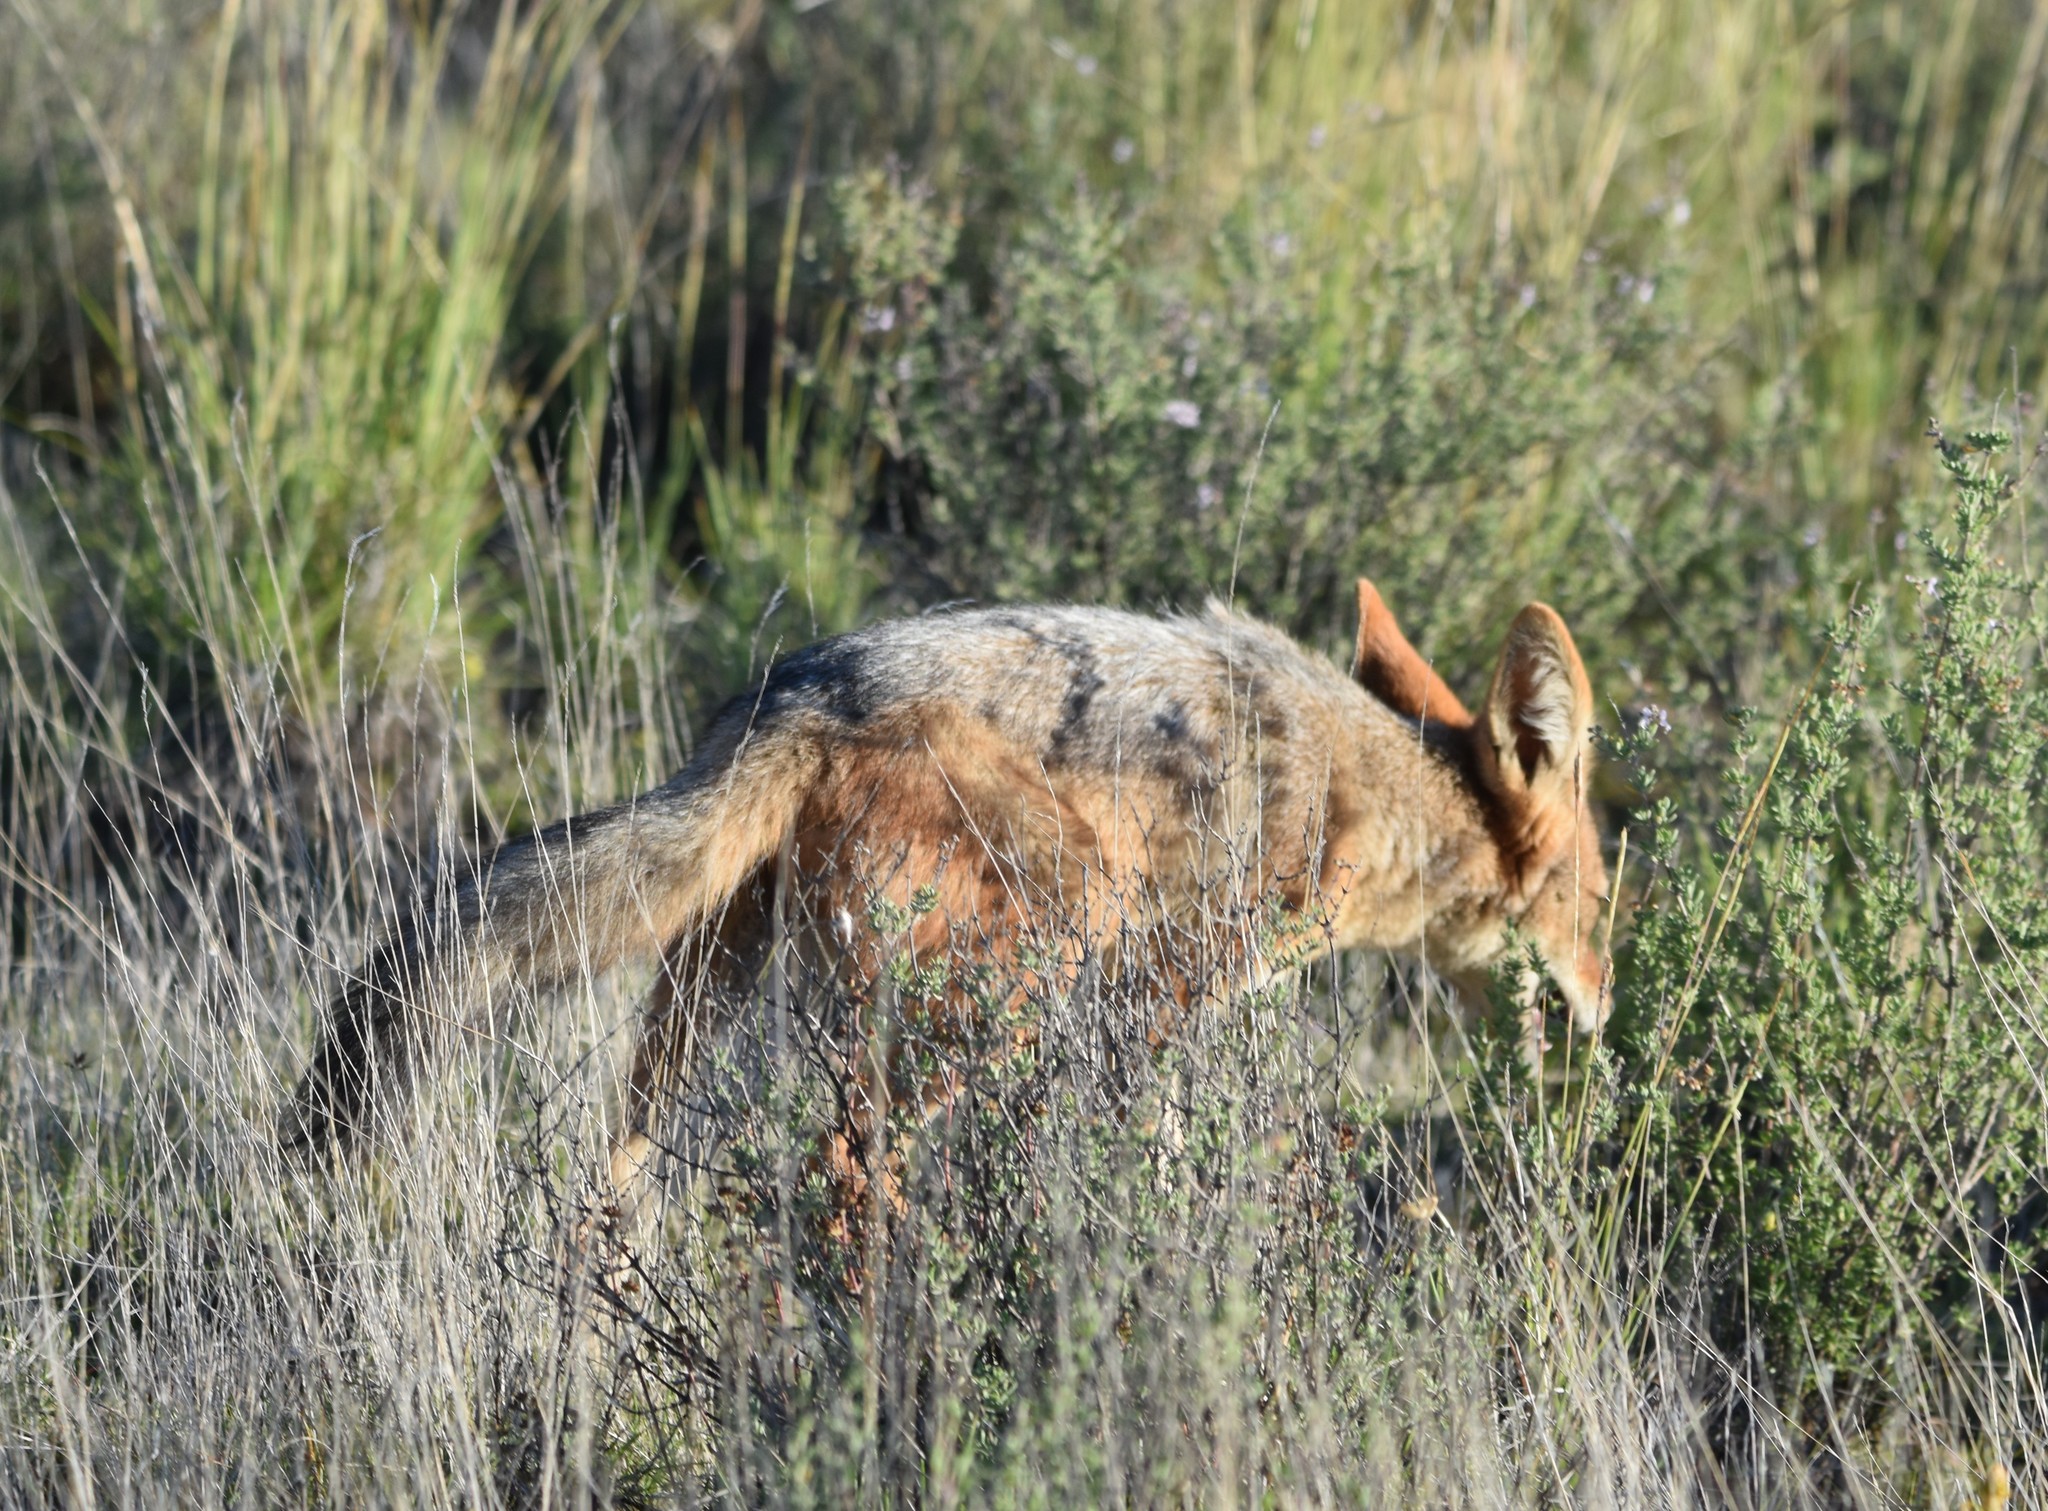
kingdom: Animalia
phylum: Chordata
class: Mammalia
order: Carnivora
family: Canidae
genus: Lupulella
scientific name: Lupulella
